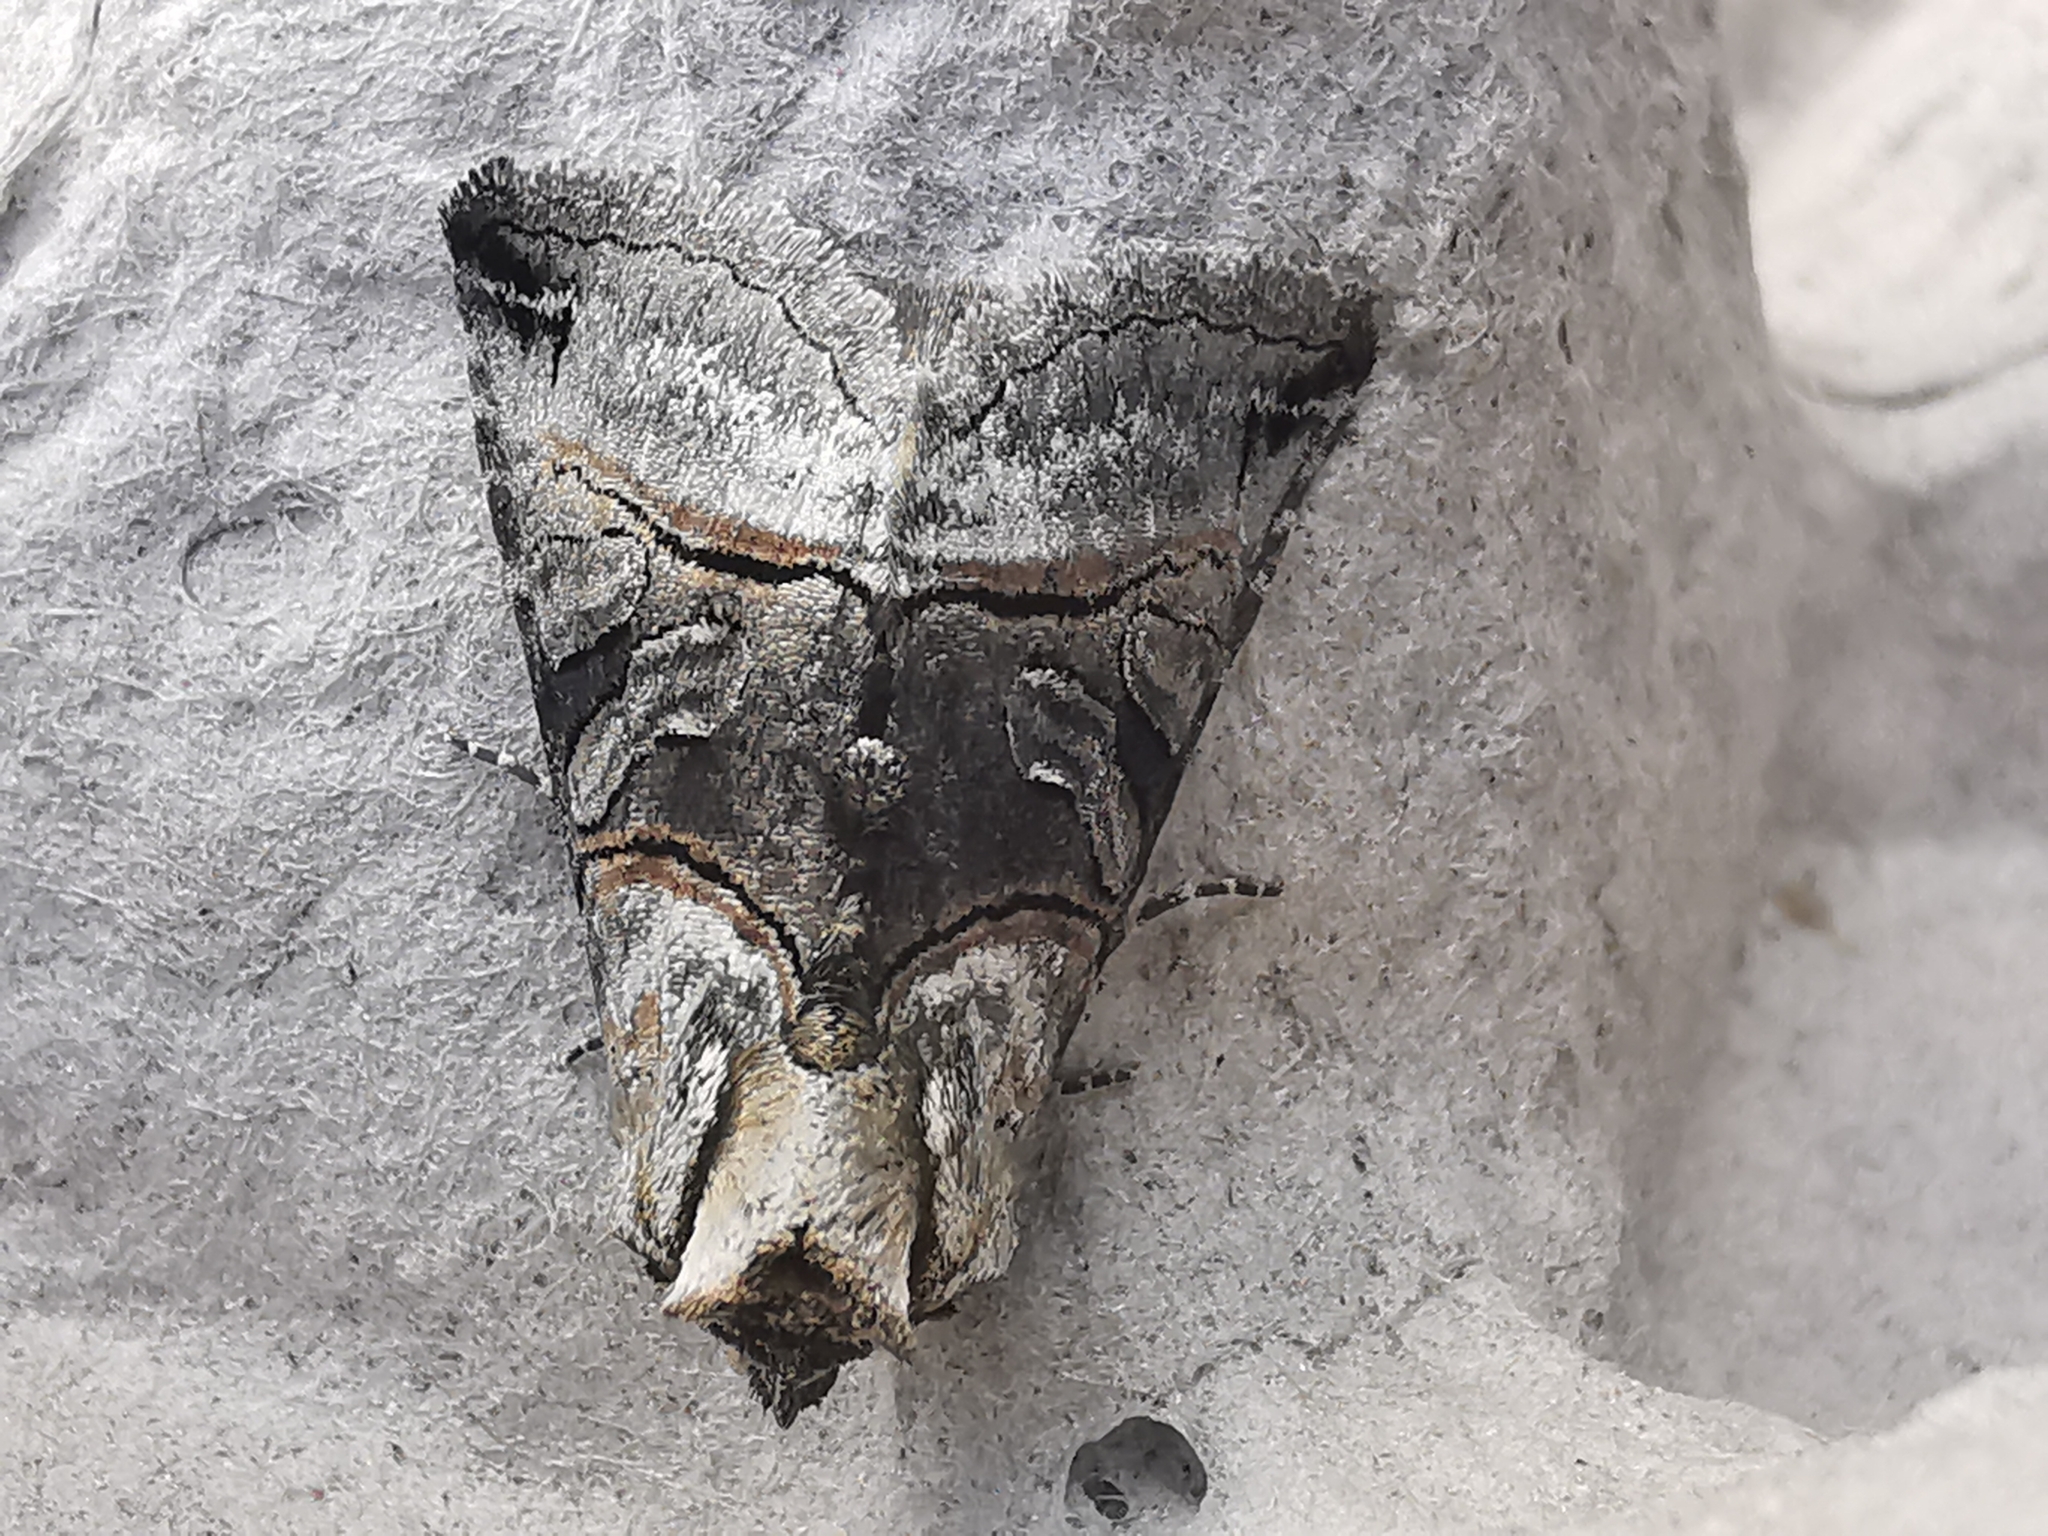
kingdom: Animalia
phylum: Arthropoda
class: Insecta
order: Lepidoptera
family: Noctuidae
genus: Abrostola
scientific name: Abrostola tripartita
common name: Spectacle
